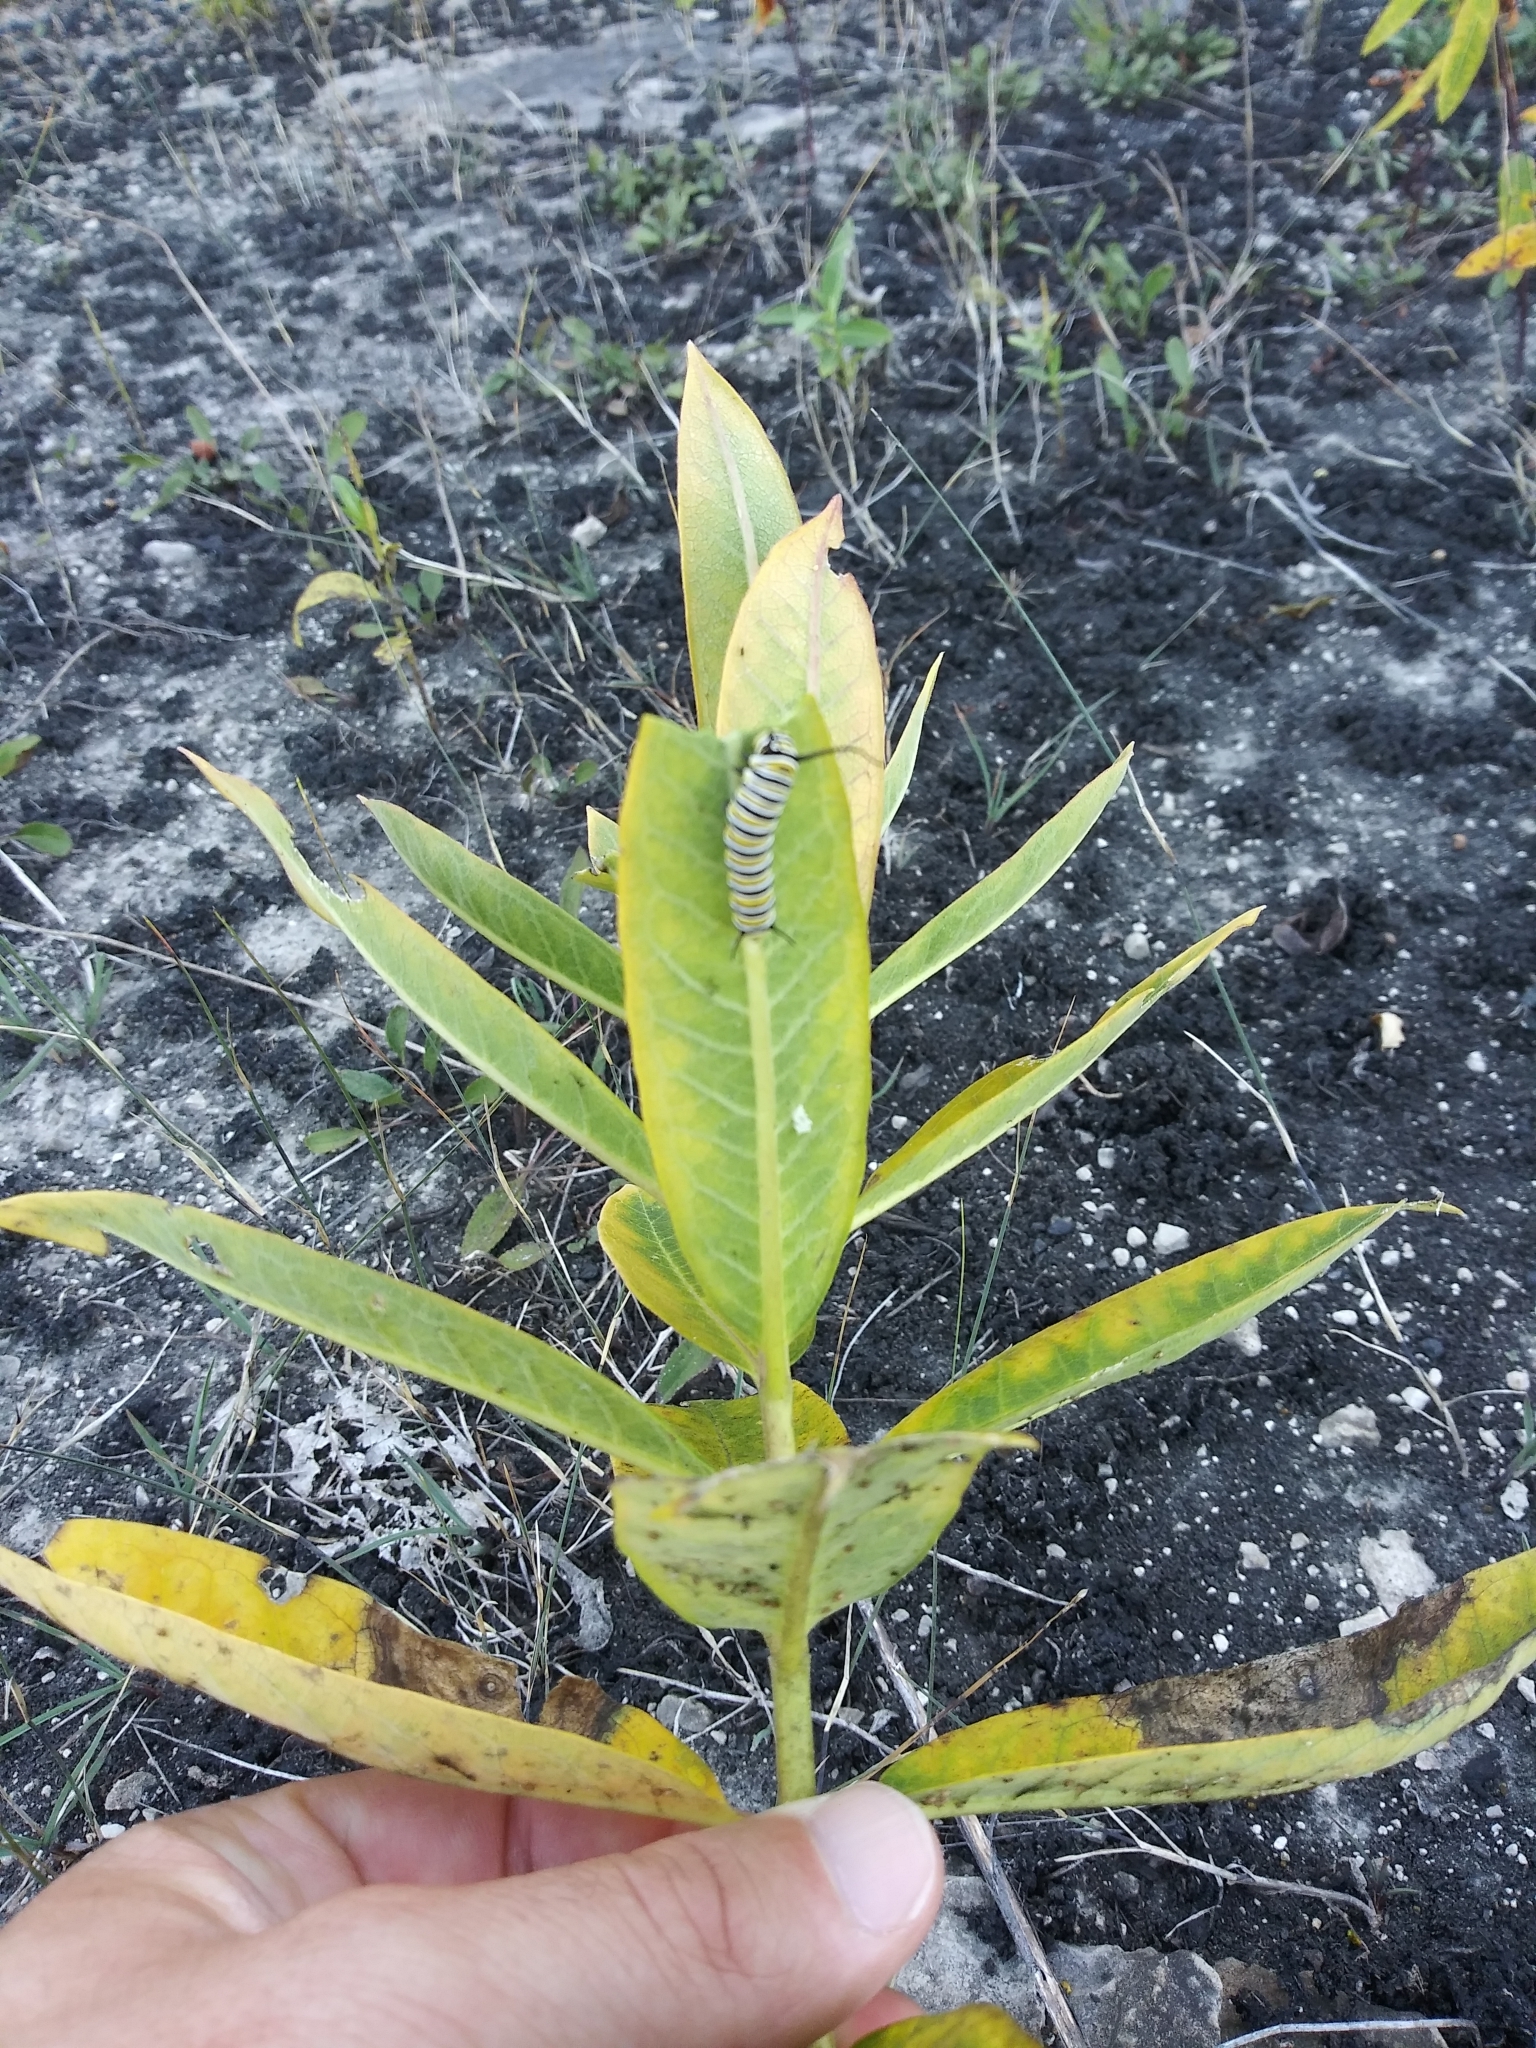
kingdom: Animalia
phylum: Arthropoda
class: Insecta
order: Lepidoptera
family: Nymphalidae
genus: Danaus
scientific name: Danaus plexippus
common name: Monarch
